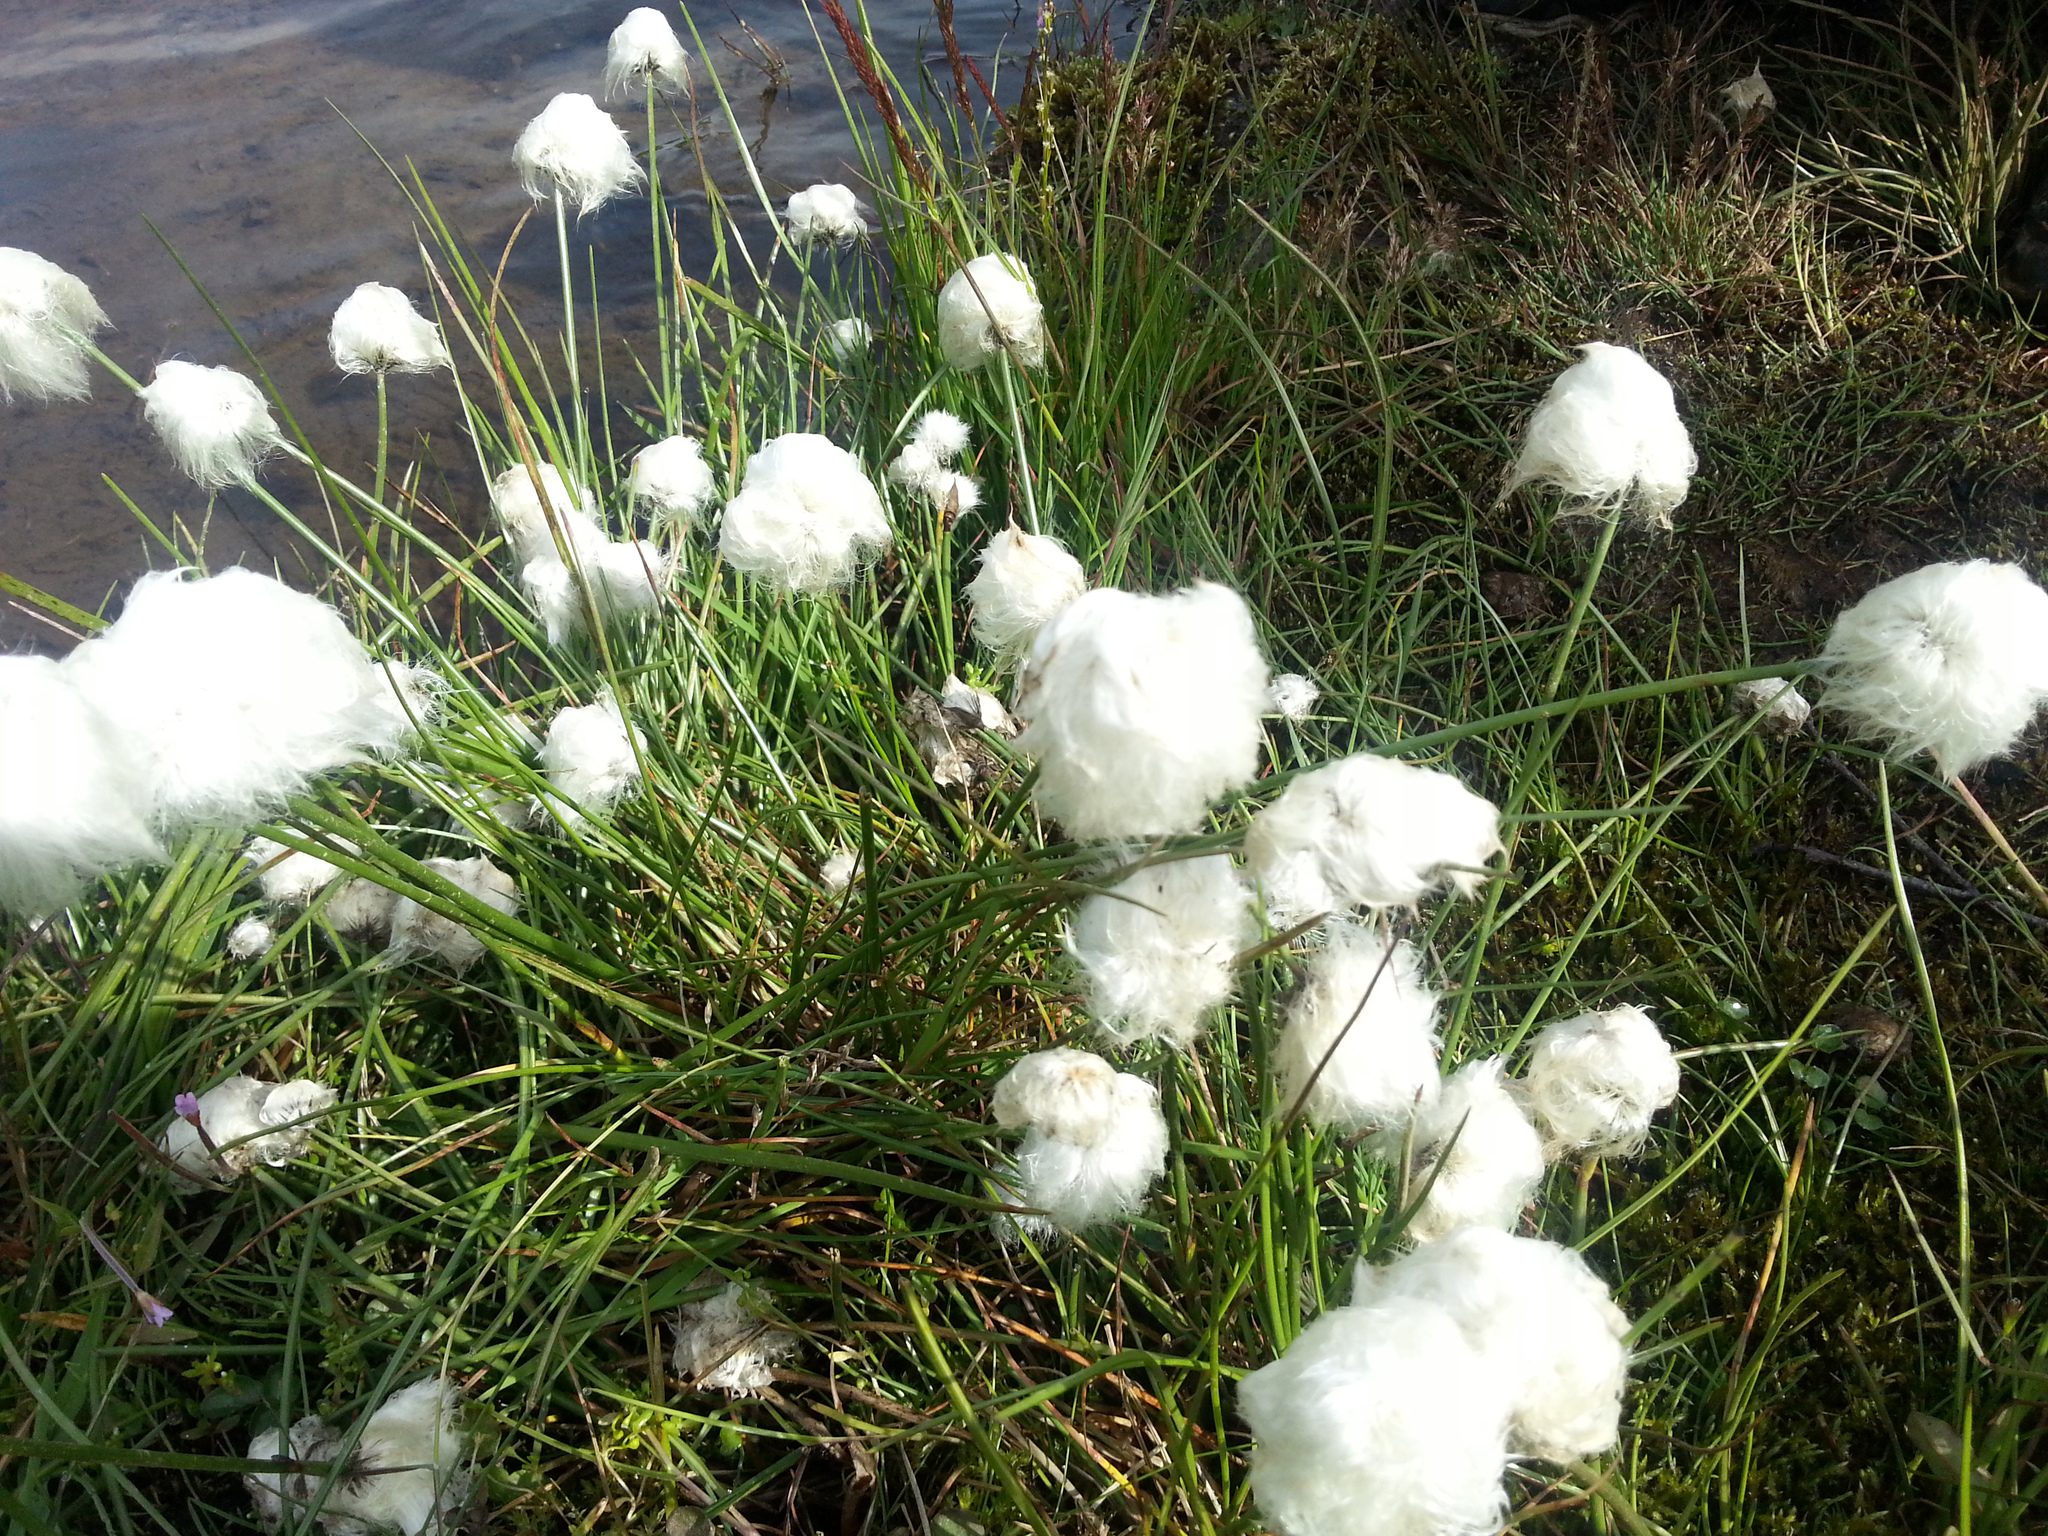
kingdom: Plantae
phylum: Tracheophyta
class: Liliopsida
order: Poales
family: Cyperaceae
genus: Eriophorum
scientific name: Eriophorum scheuchzeri
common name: Scheuchzer's cottongrass
